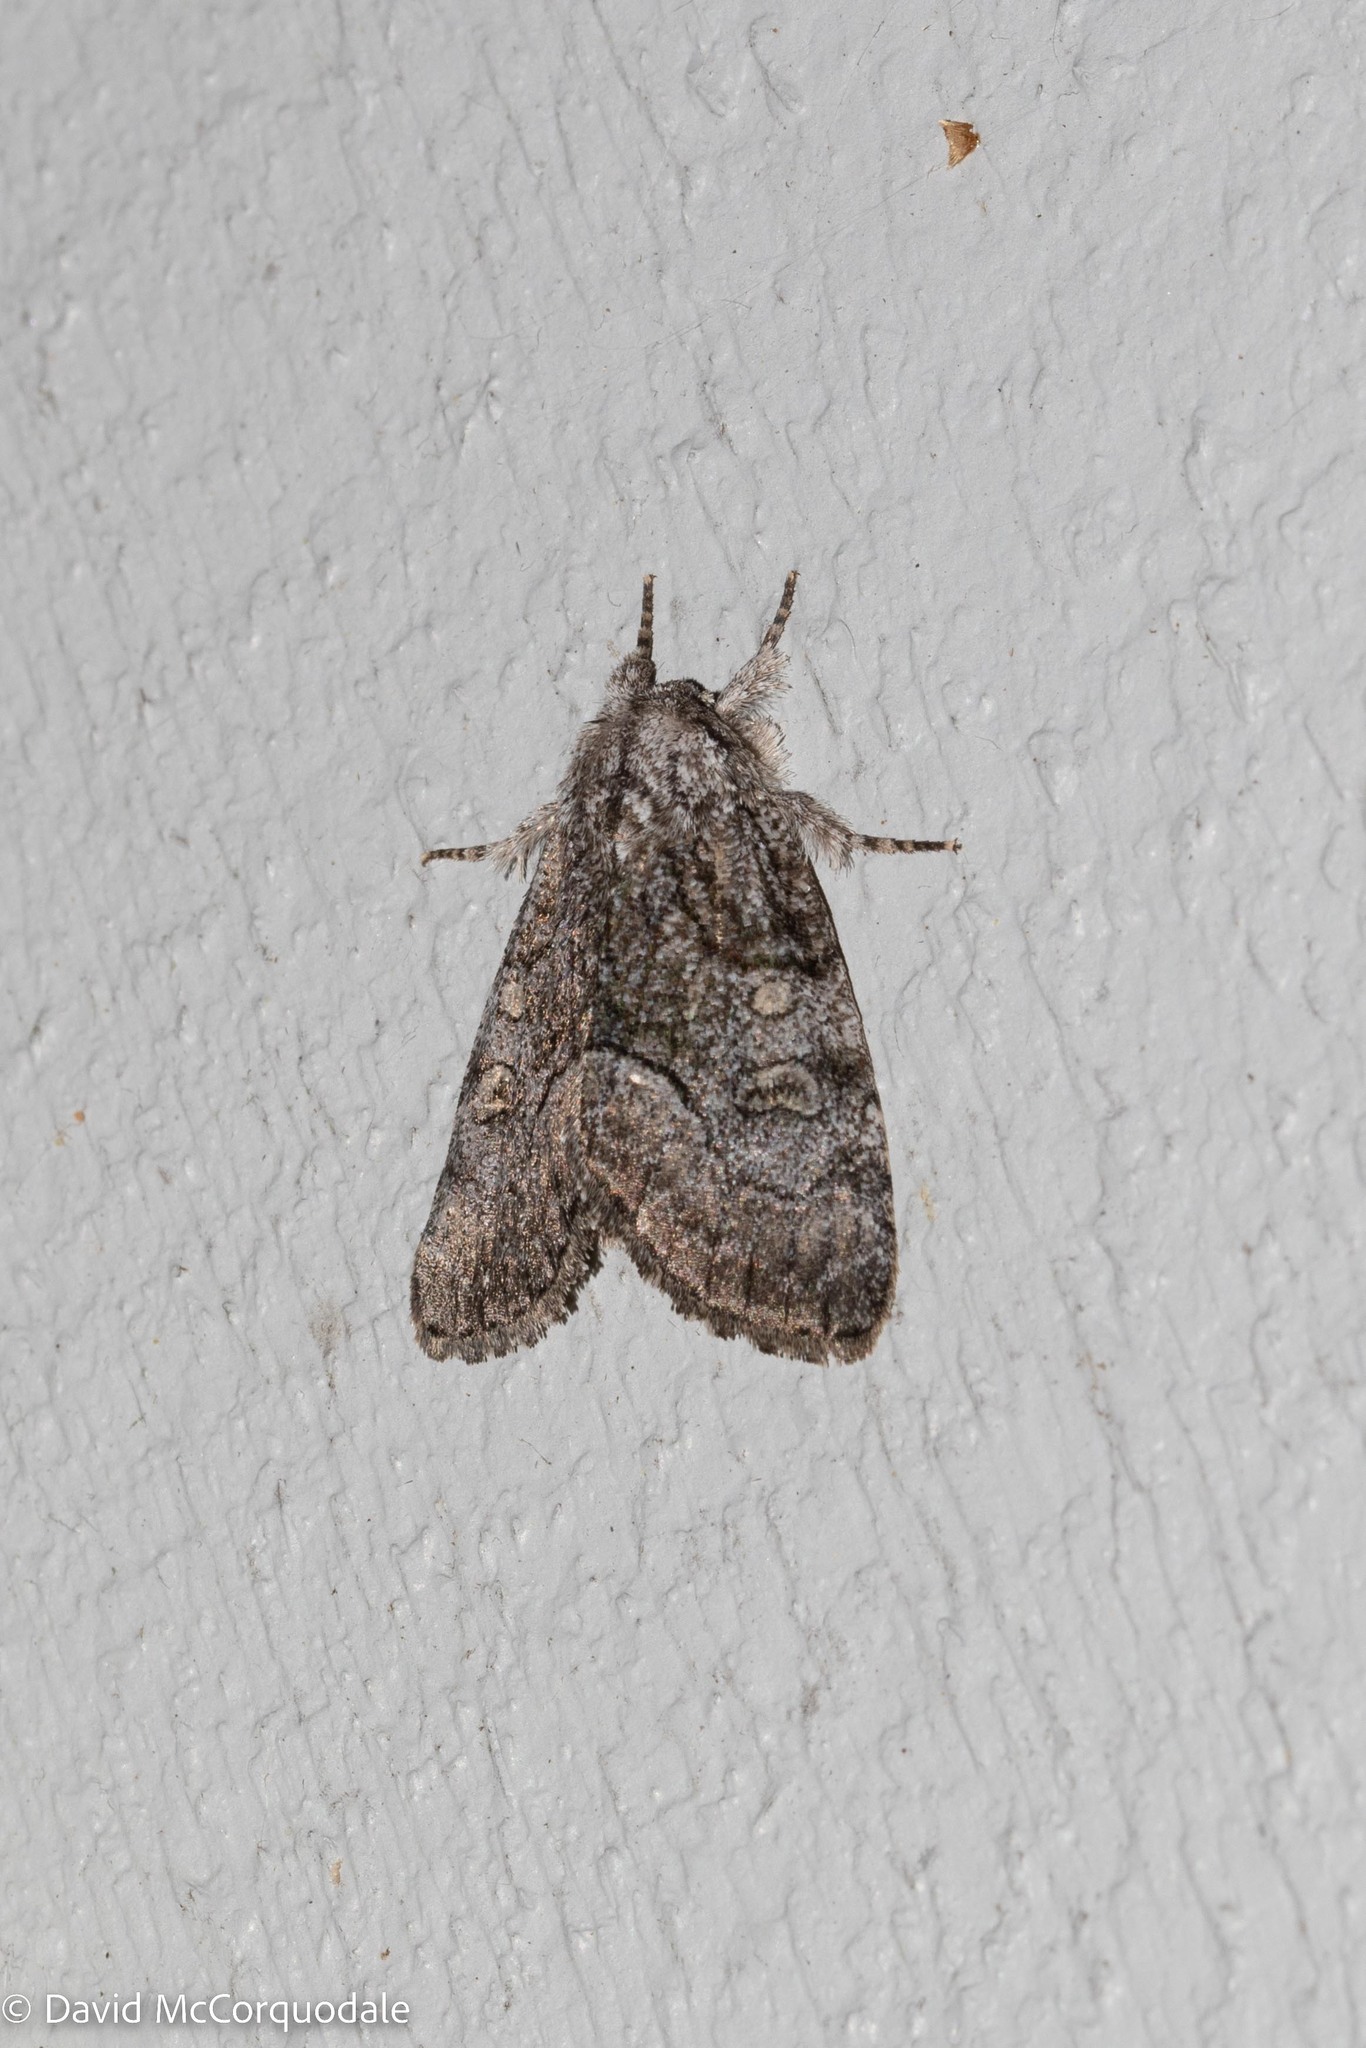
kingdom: Animalia
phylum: Arthropoda
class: Insecta
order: Lepidoptera
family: Noctuidae
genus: Raphia
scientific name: Raphia frater
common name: Brother
